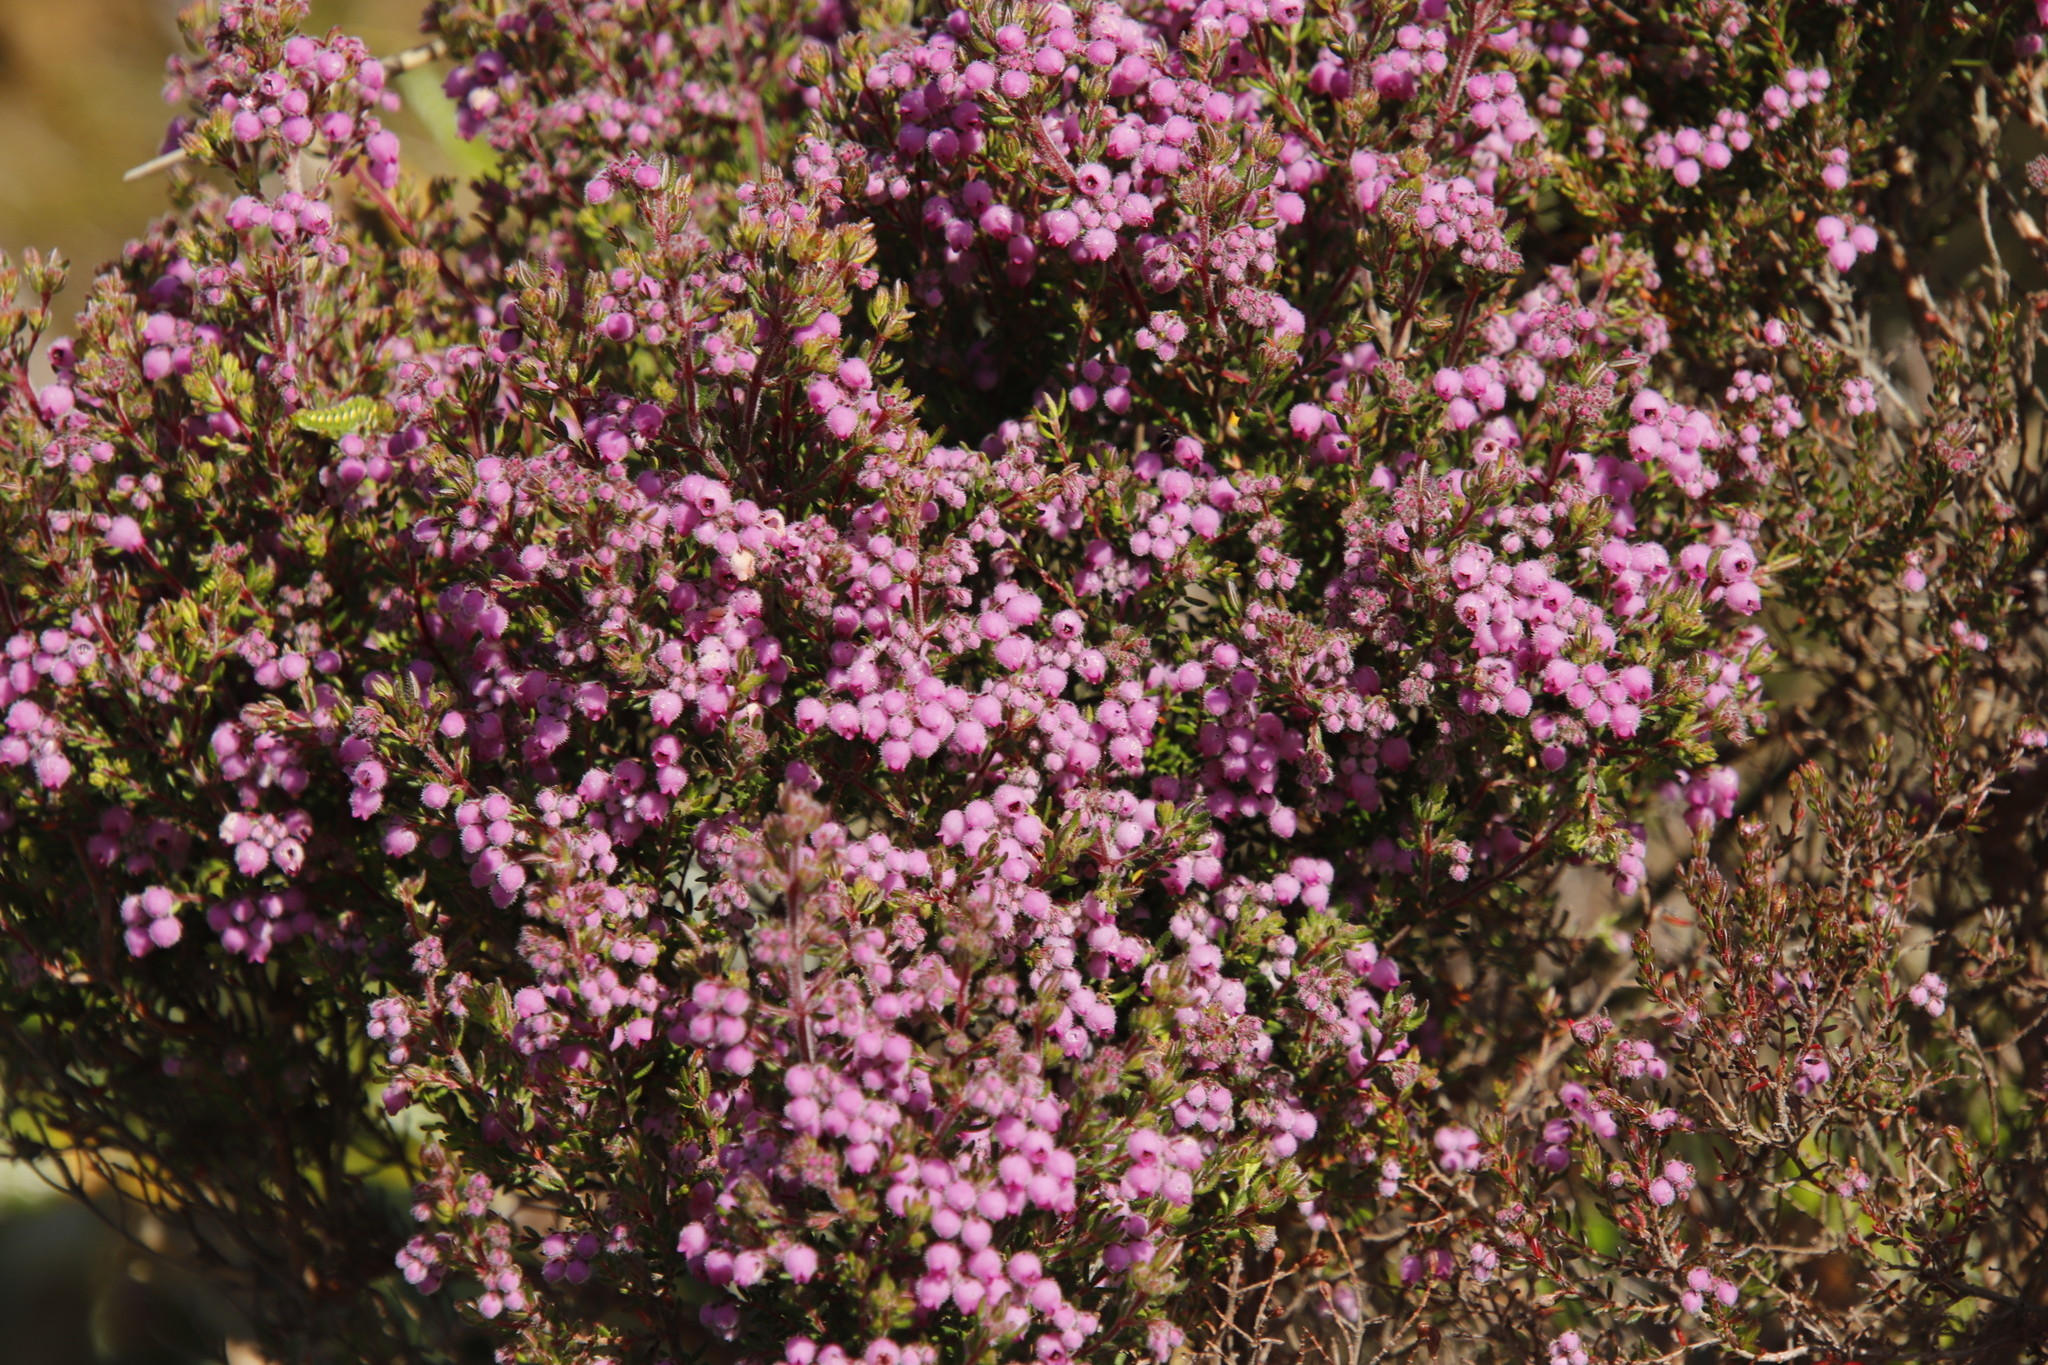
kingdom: Plantae
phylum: Tracheophyta
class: Magnoliopsida
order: Ericales
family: Ericaceae
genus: Erica
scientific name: Erica hirtiflora
